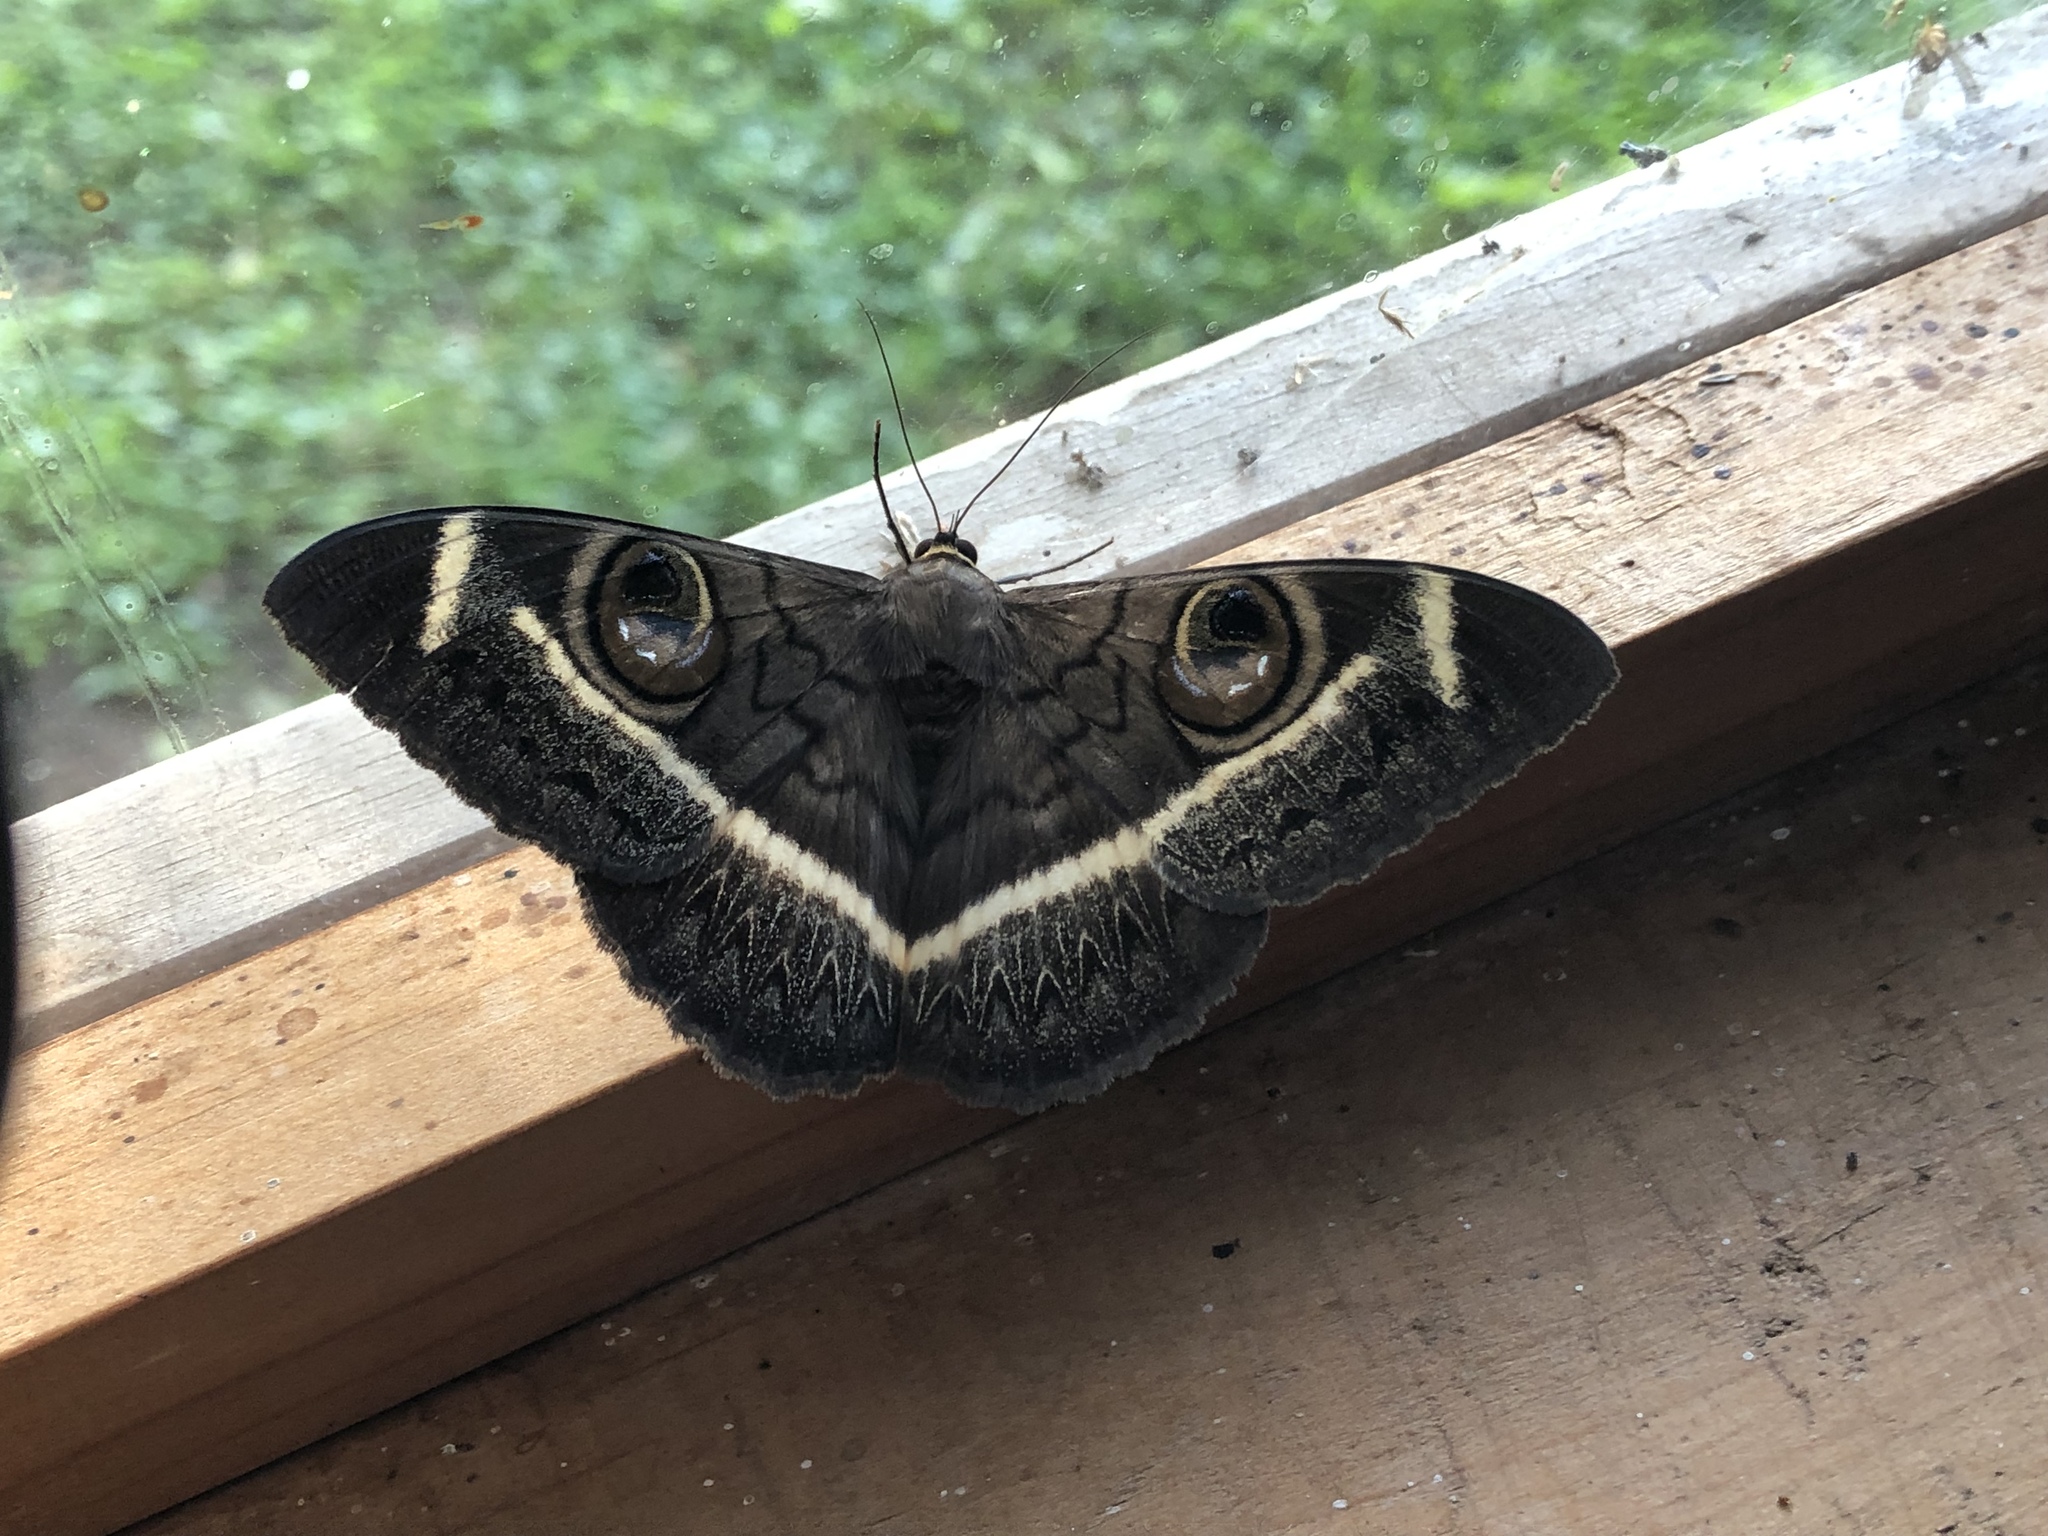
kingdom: Animalia
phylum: Arthropoda
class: Insecta
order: Lepidoptera
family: Erebidae
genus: Cyligramma
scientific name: Cyligramma latona
